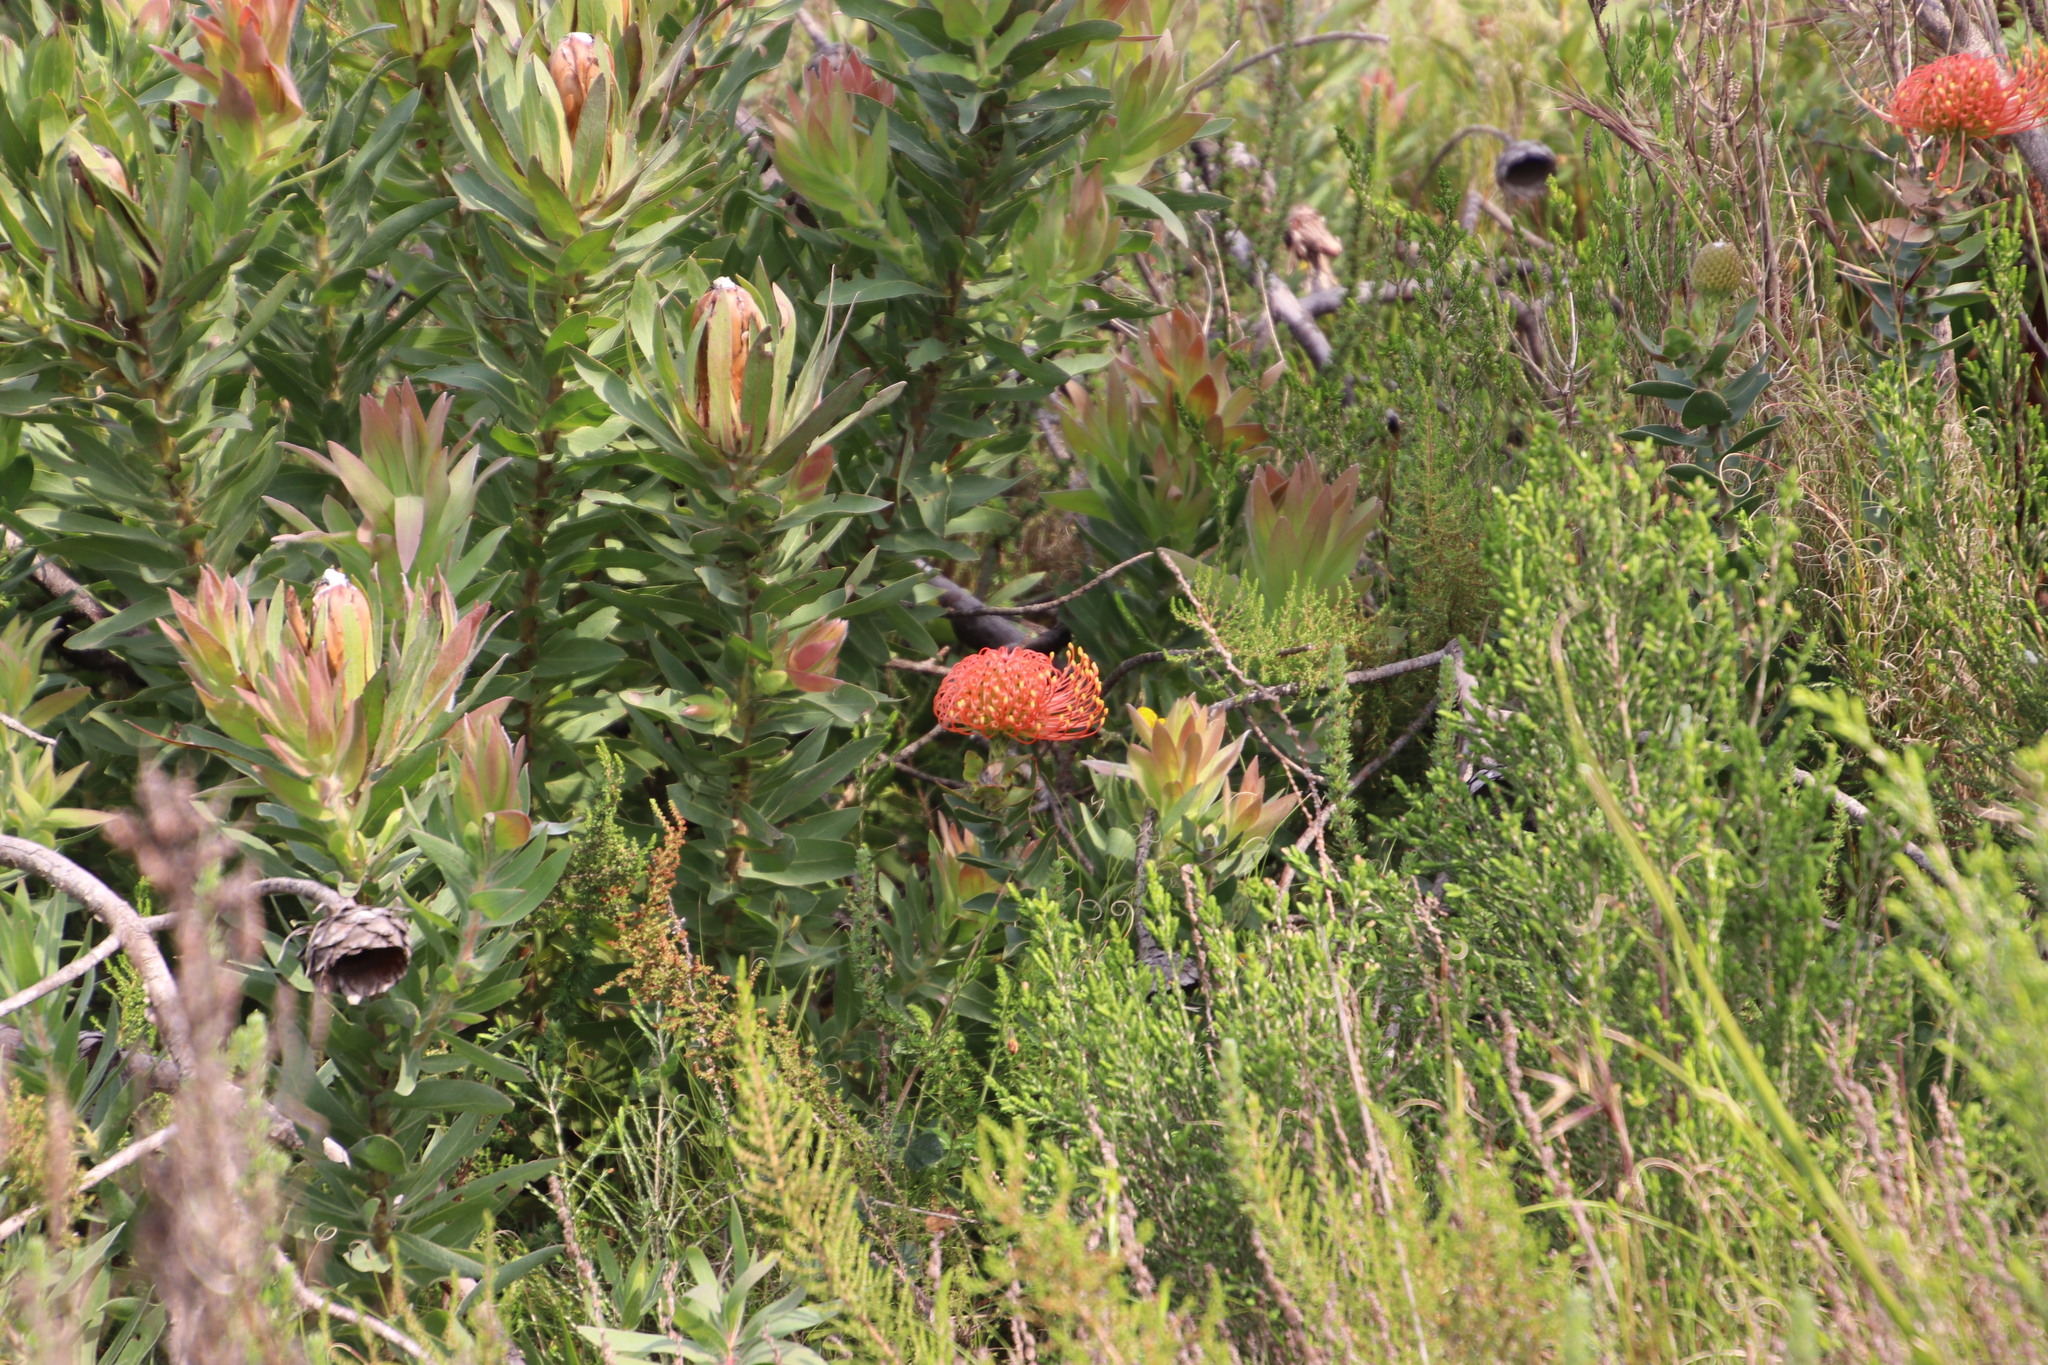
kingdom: Plantae
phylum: Tracheophyta
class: Magnoliopsida
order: Proteales
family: Proteaceae
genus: Leucospermum
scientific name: Leucospermum cordifolium
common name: Red pincushion-protea
